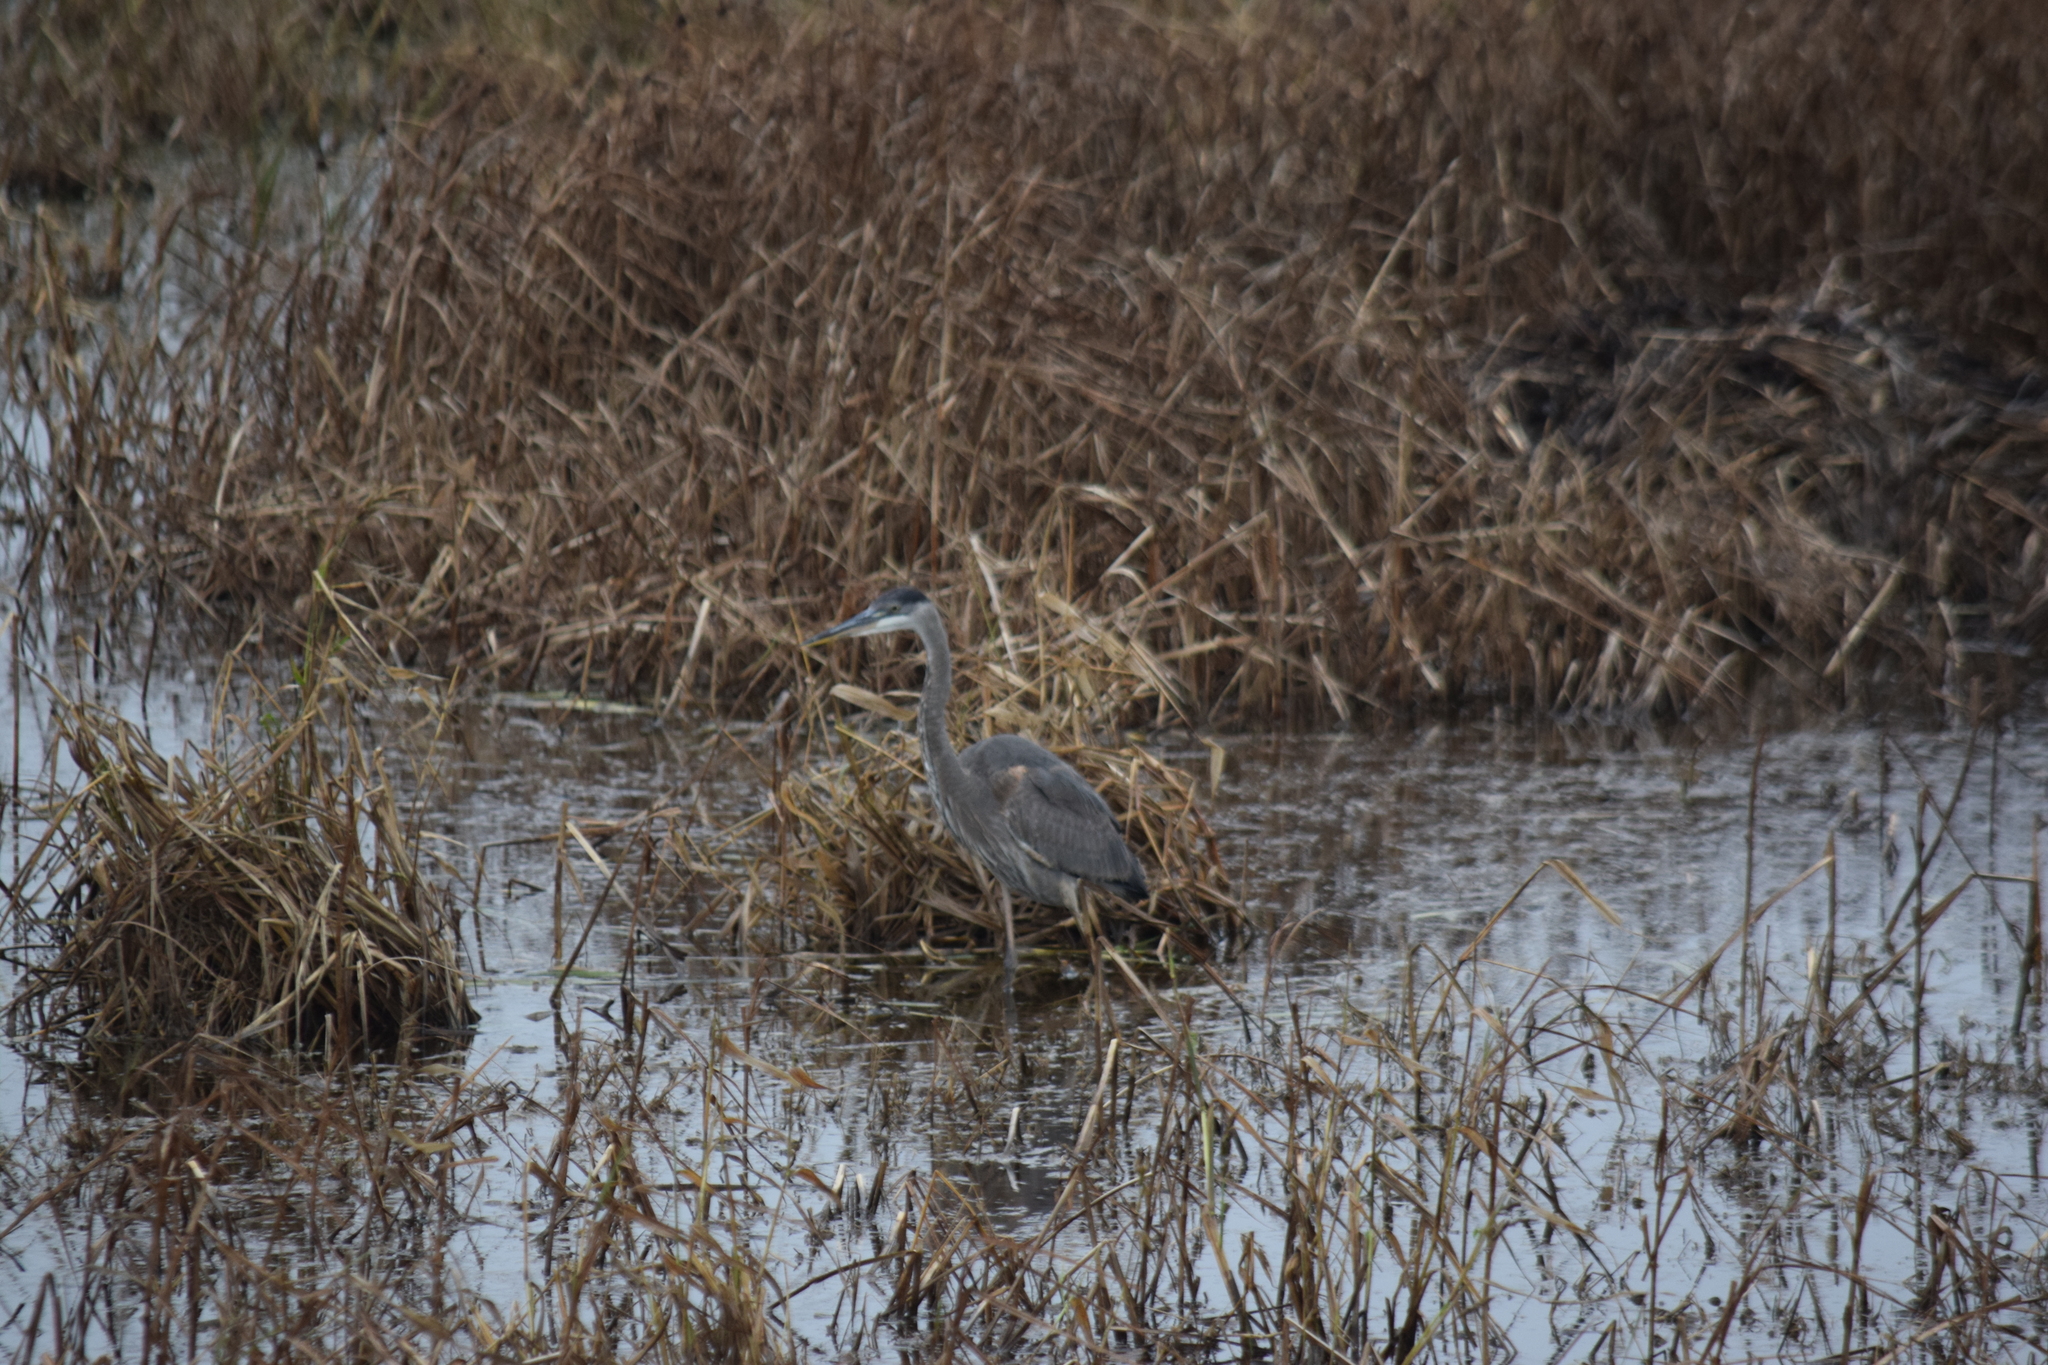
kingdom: Animalia
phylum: Chordata
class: Aves
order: Pelecaniformes
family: Ardeidae
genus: Ardea
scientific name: Ardea herodias
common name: Great blue heron
